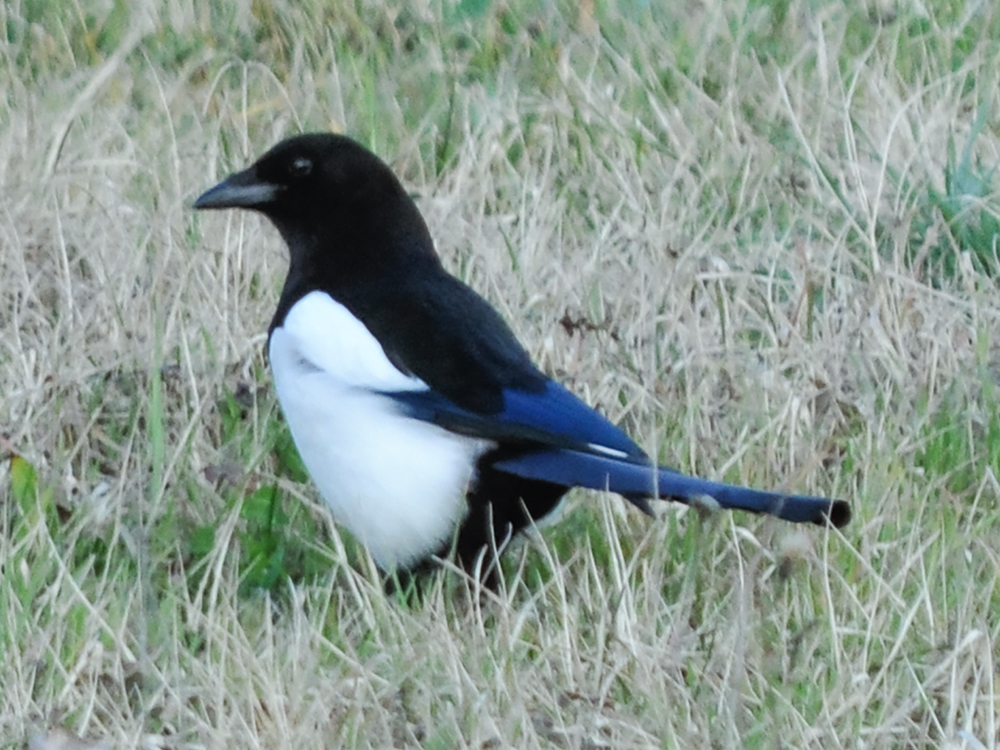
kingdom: Animalia
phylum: Chordata
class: Aves
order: Passeriformes
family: Corvidae
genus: Pica
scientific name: Pica pica
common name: Eurasian magpie
